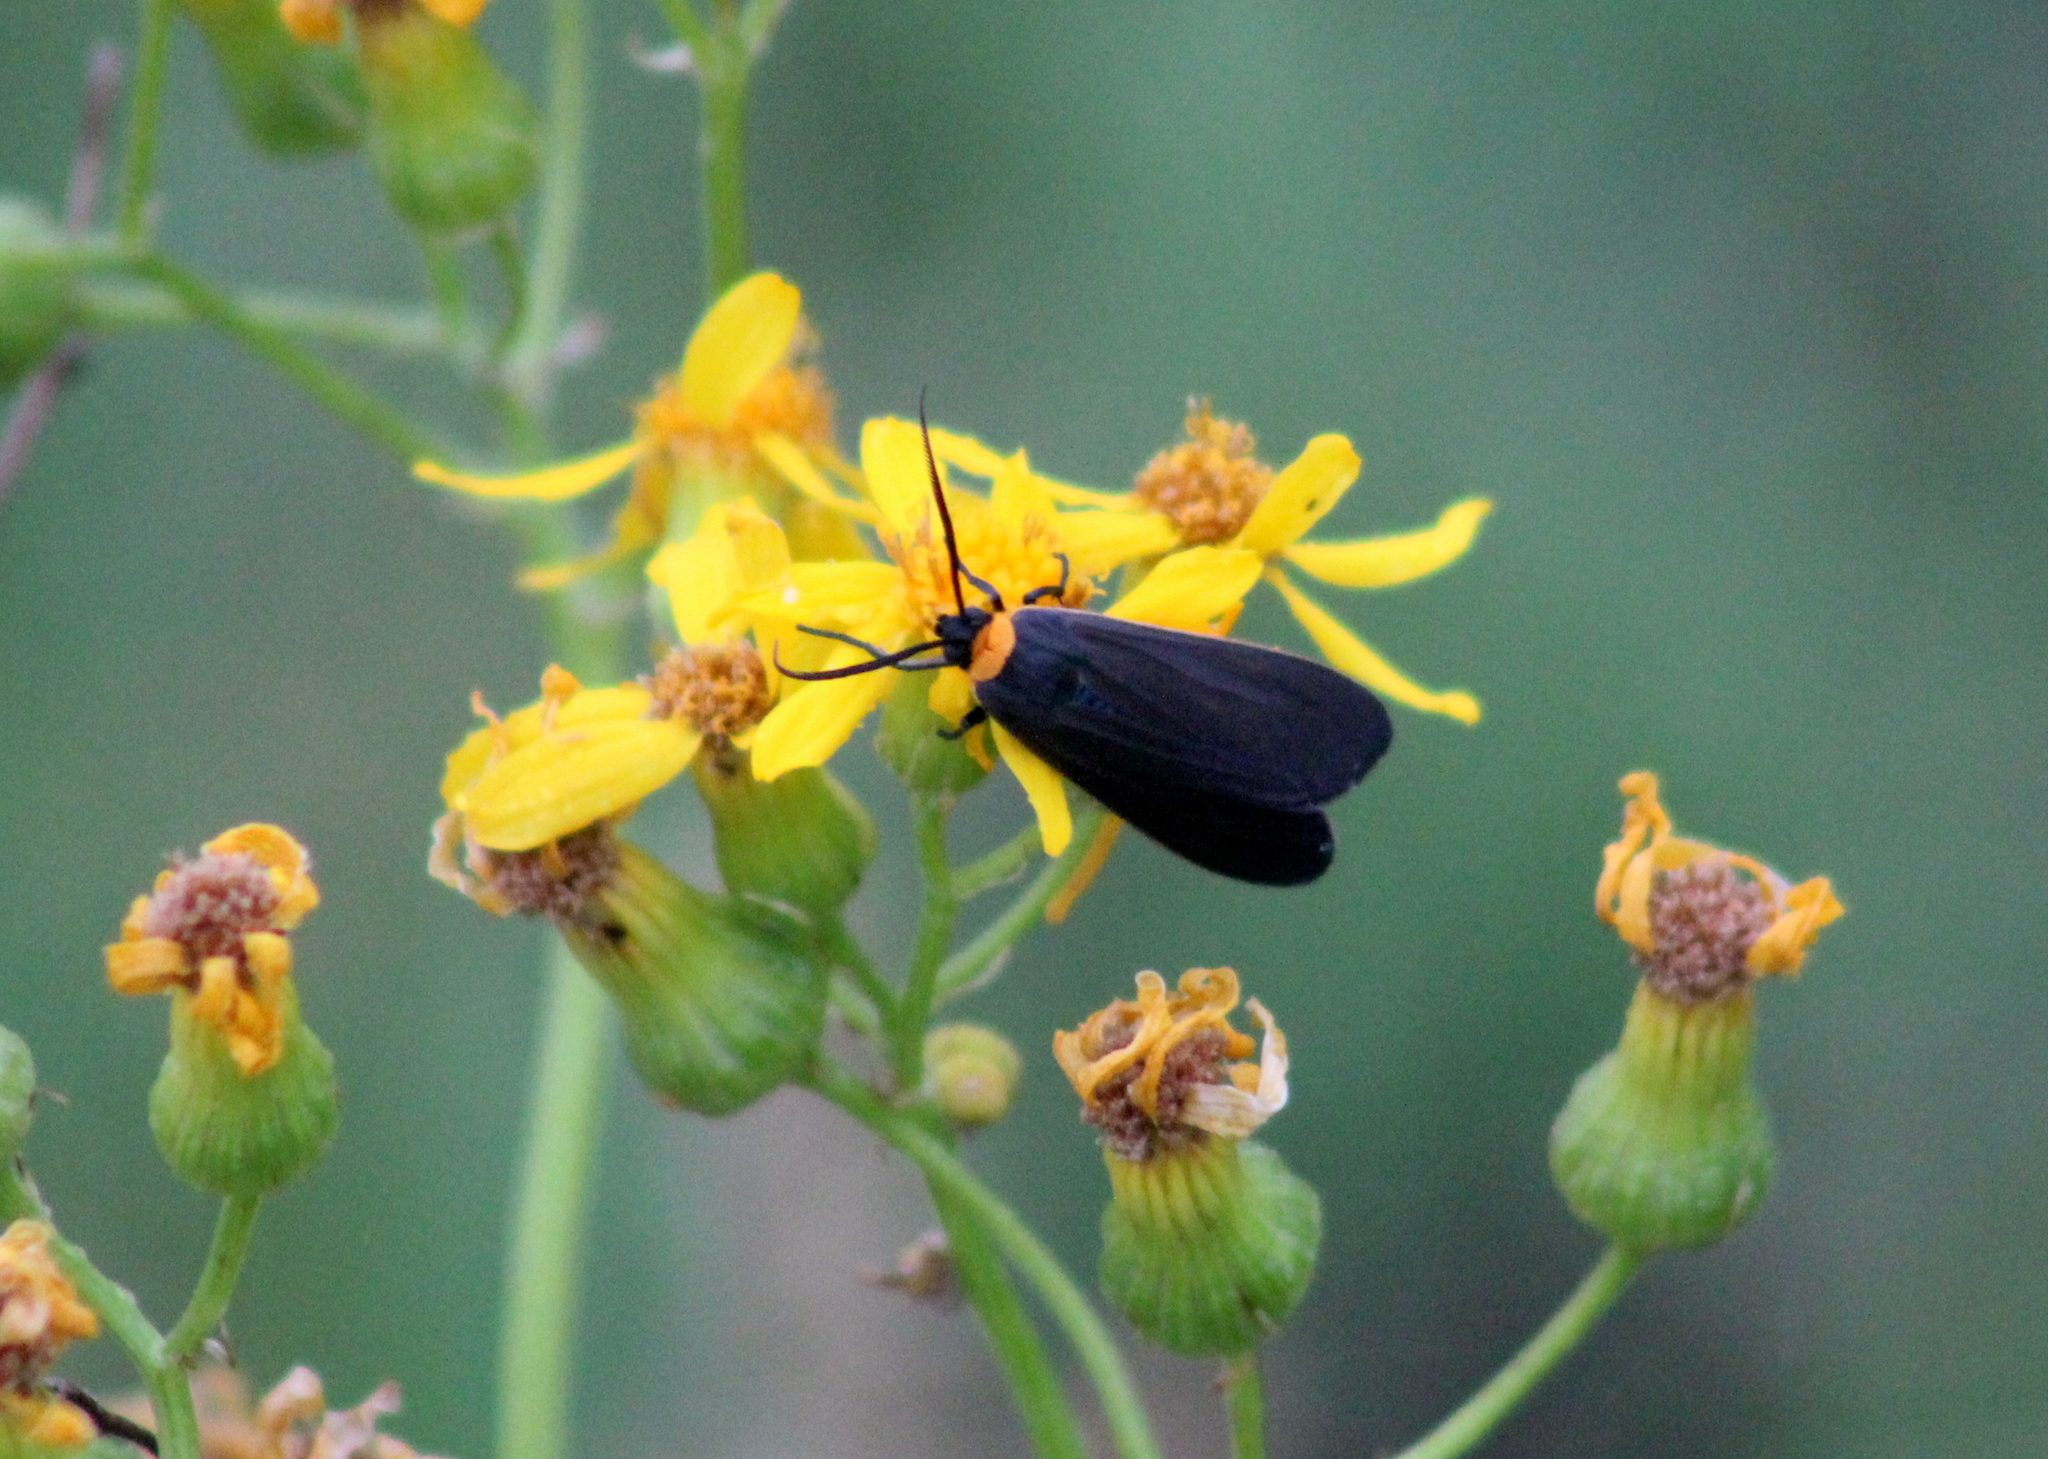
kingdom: Animalia
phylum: Arthropoda
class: Insecta
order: Lepidoptera
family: Erebidae
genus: Cisseps
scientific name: Cisseps fulvicollis
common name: Yellow-collared scape moth
